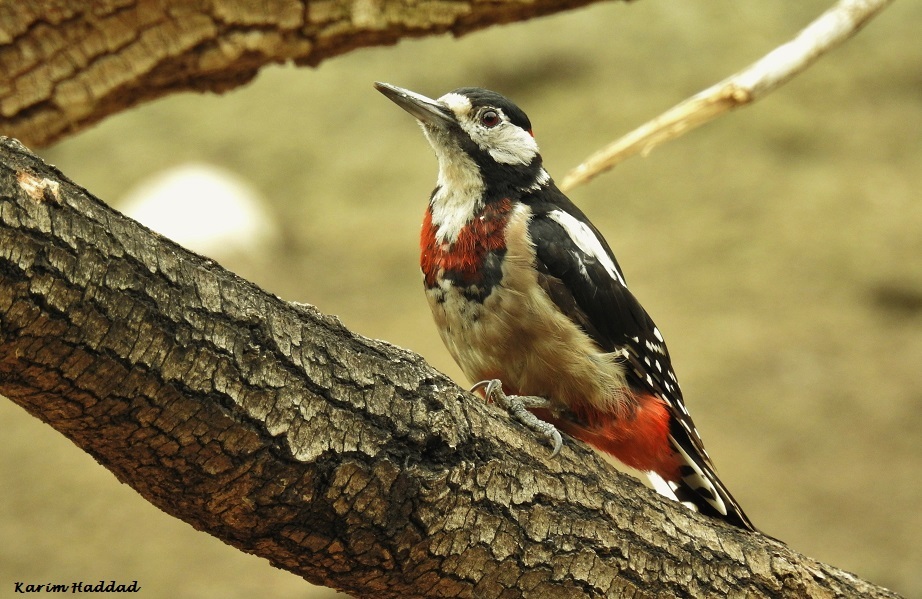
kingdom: Animalia
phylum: Chordata
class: Aves
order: Piciformes
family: Picidae
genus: Dendrocopos
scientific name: Dendrocopos major
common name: Great spotted woodpecker
